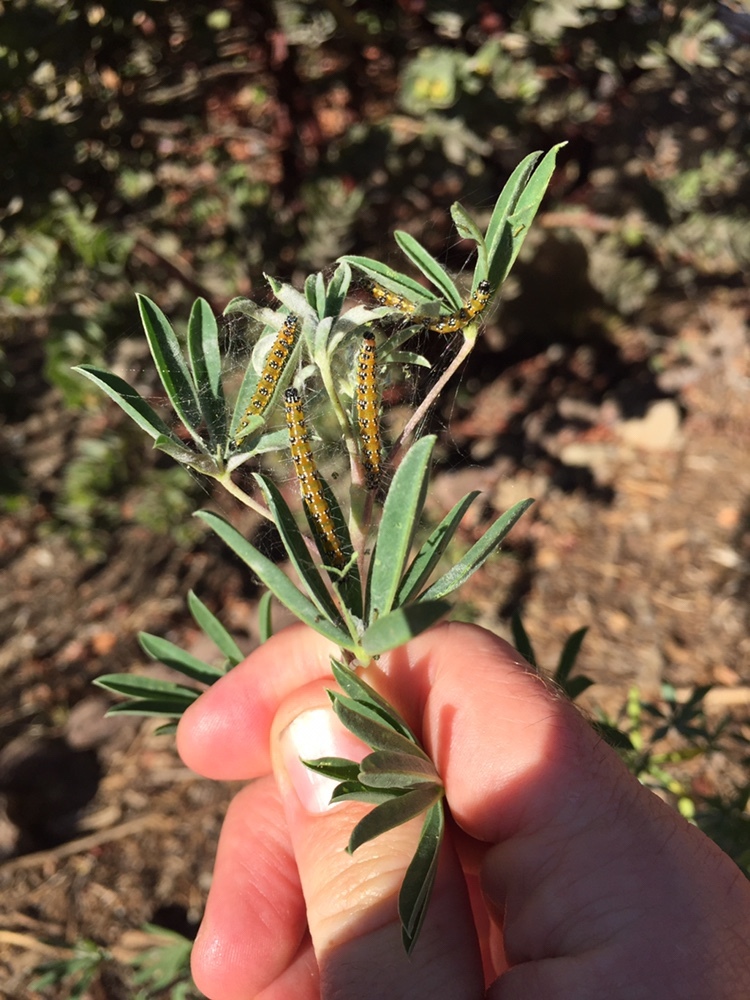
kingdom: Animalia
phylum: Arthropoda
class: Insecta
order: Lepidoptera
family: Crambidae
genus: Uresiphita
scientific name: Uresiphita reversalis
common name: Genista broom moth
